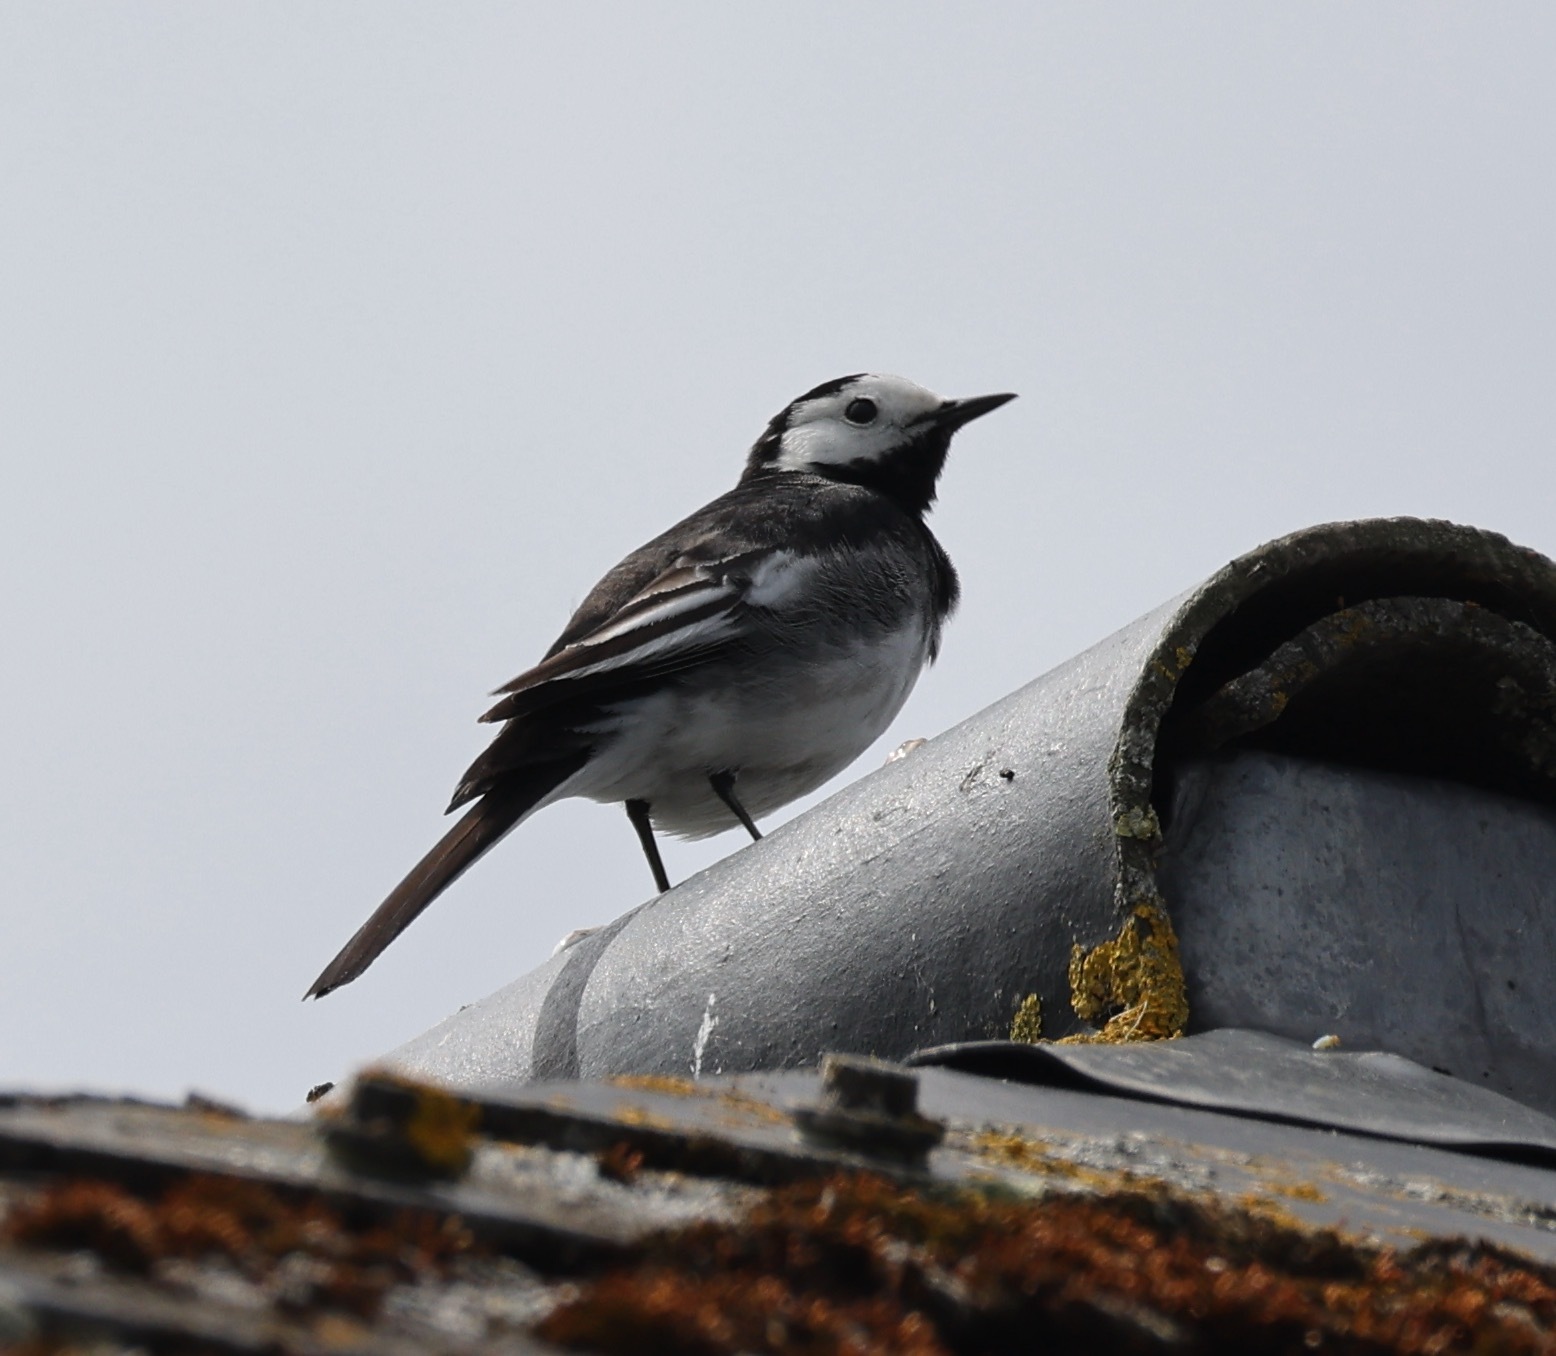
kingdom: Animalia
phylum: Chordata
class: Aves
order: Passeriformes
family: Motacillidae
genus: Motacilla
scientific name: Motacilla alba
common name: White wagtail
